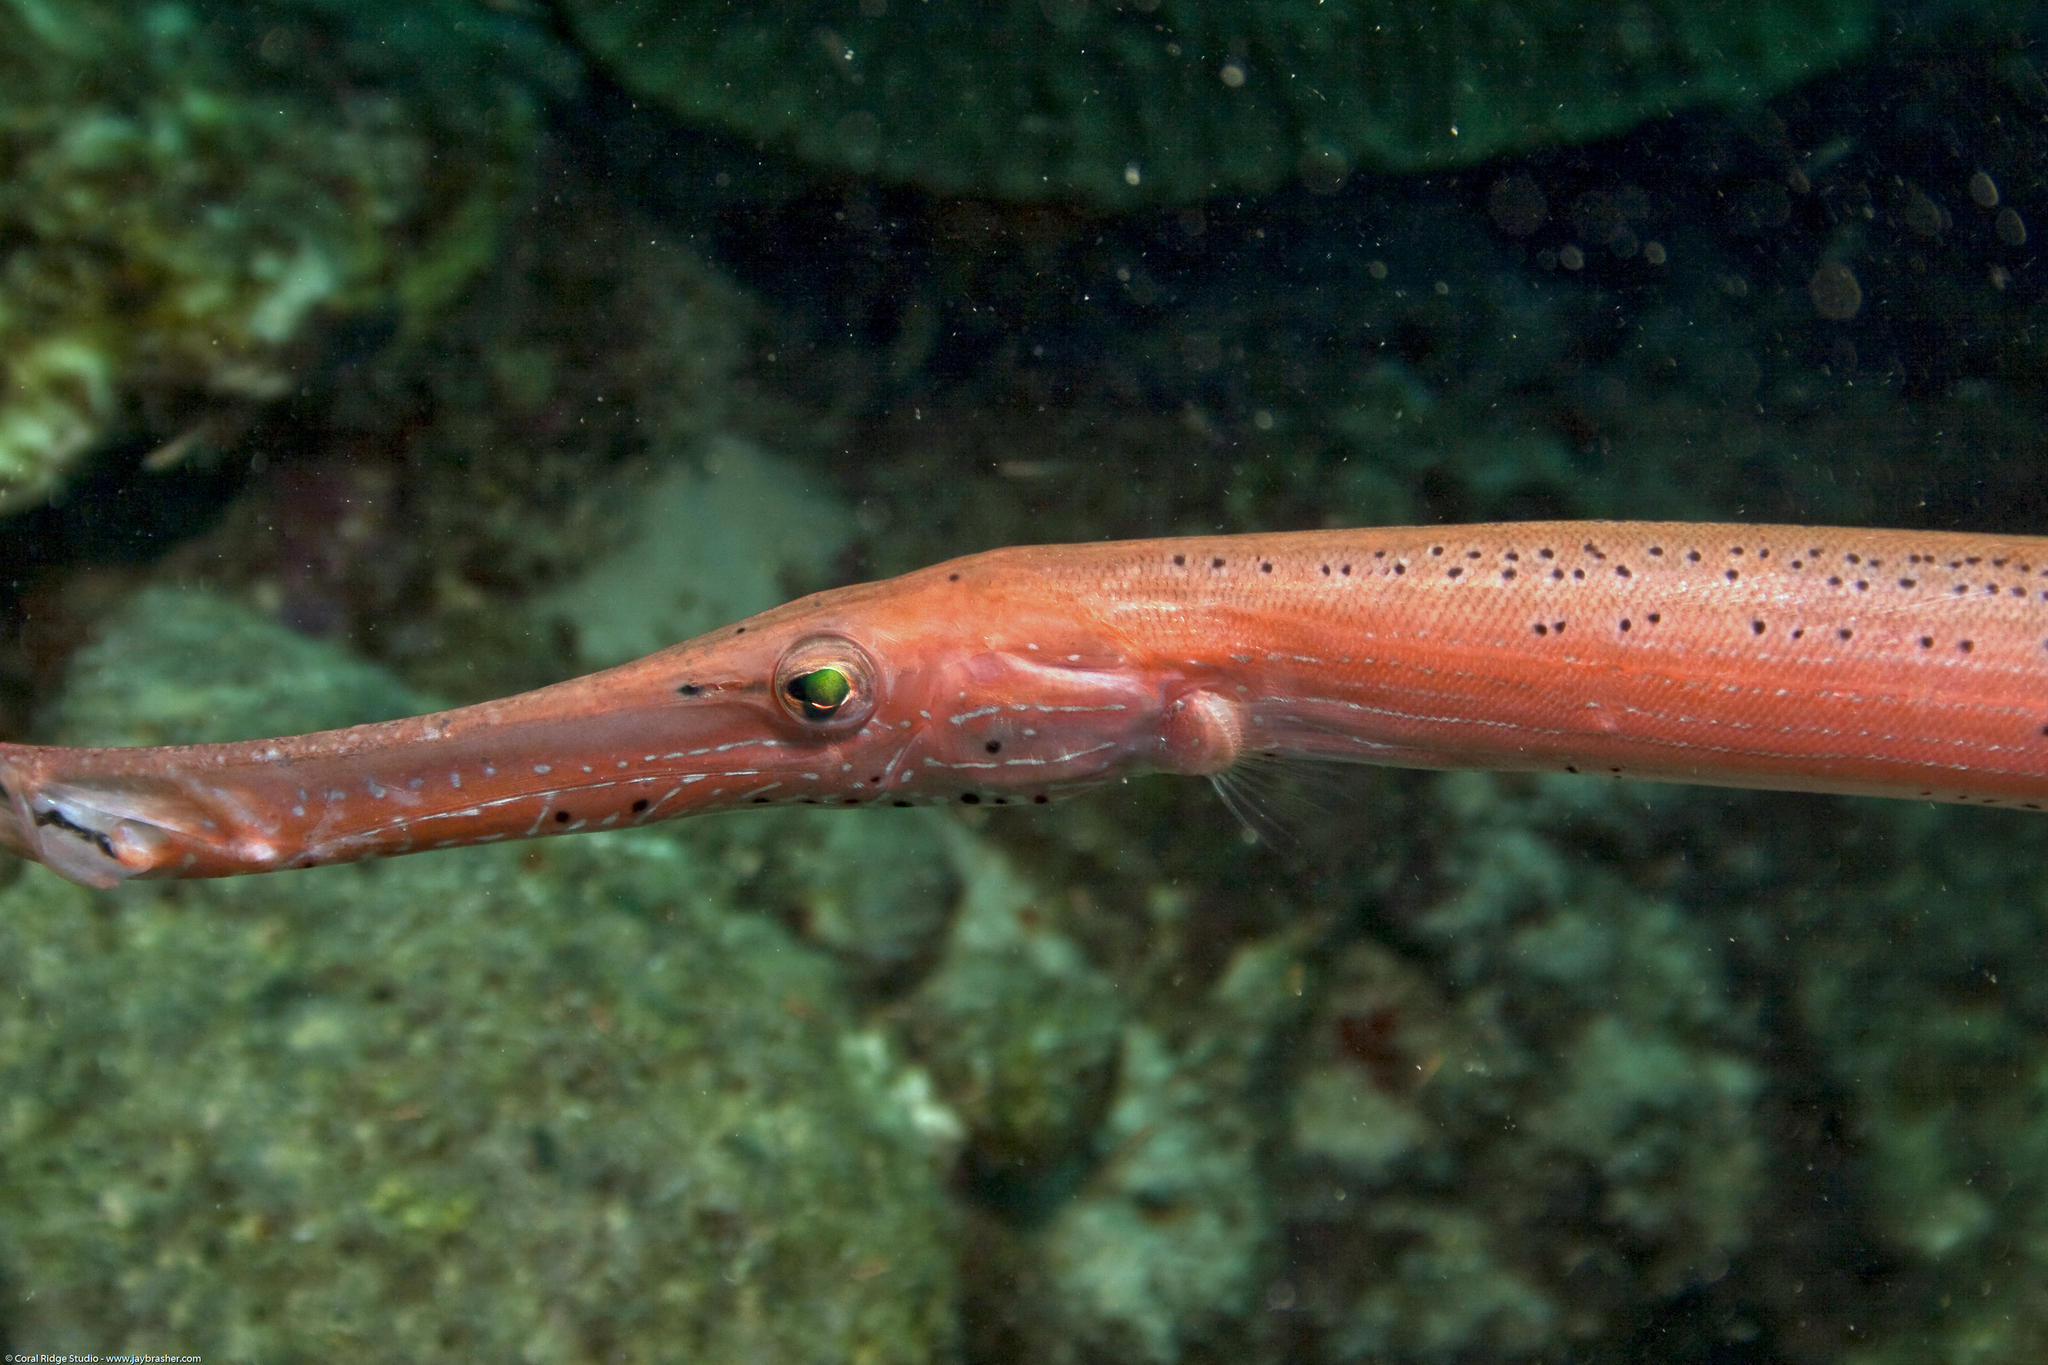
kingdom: Animalia
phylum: Chordata
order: Syngnathiformes
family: Aulostomidae
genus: Aulostomus
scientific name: Aulostomus maculatus
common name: West atlantic trumpetfish
